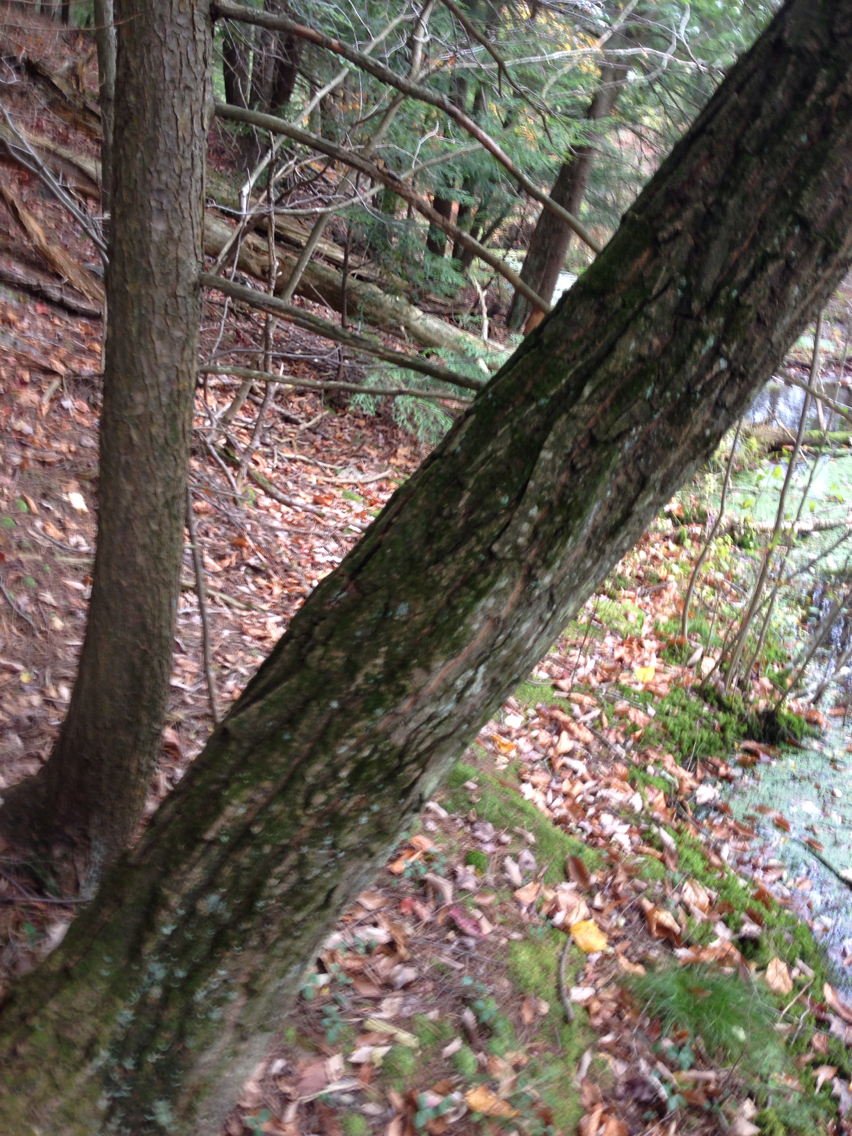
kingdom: Plantae
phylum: Tracheophyta
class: Magnoliopsida
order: Fagales
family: Fagaceae
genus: Quercus
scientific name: Quercus montana
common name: Chestnut oak
